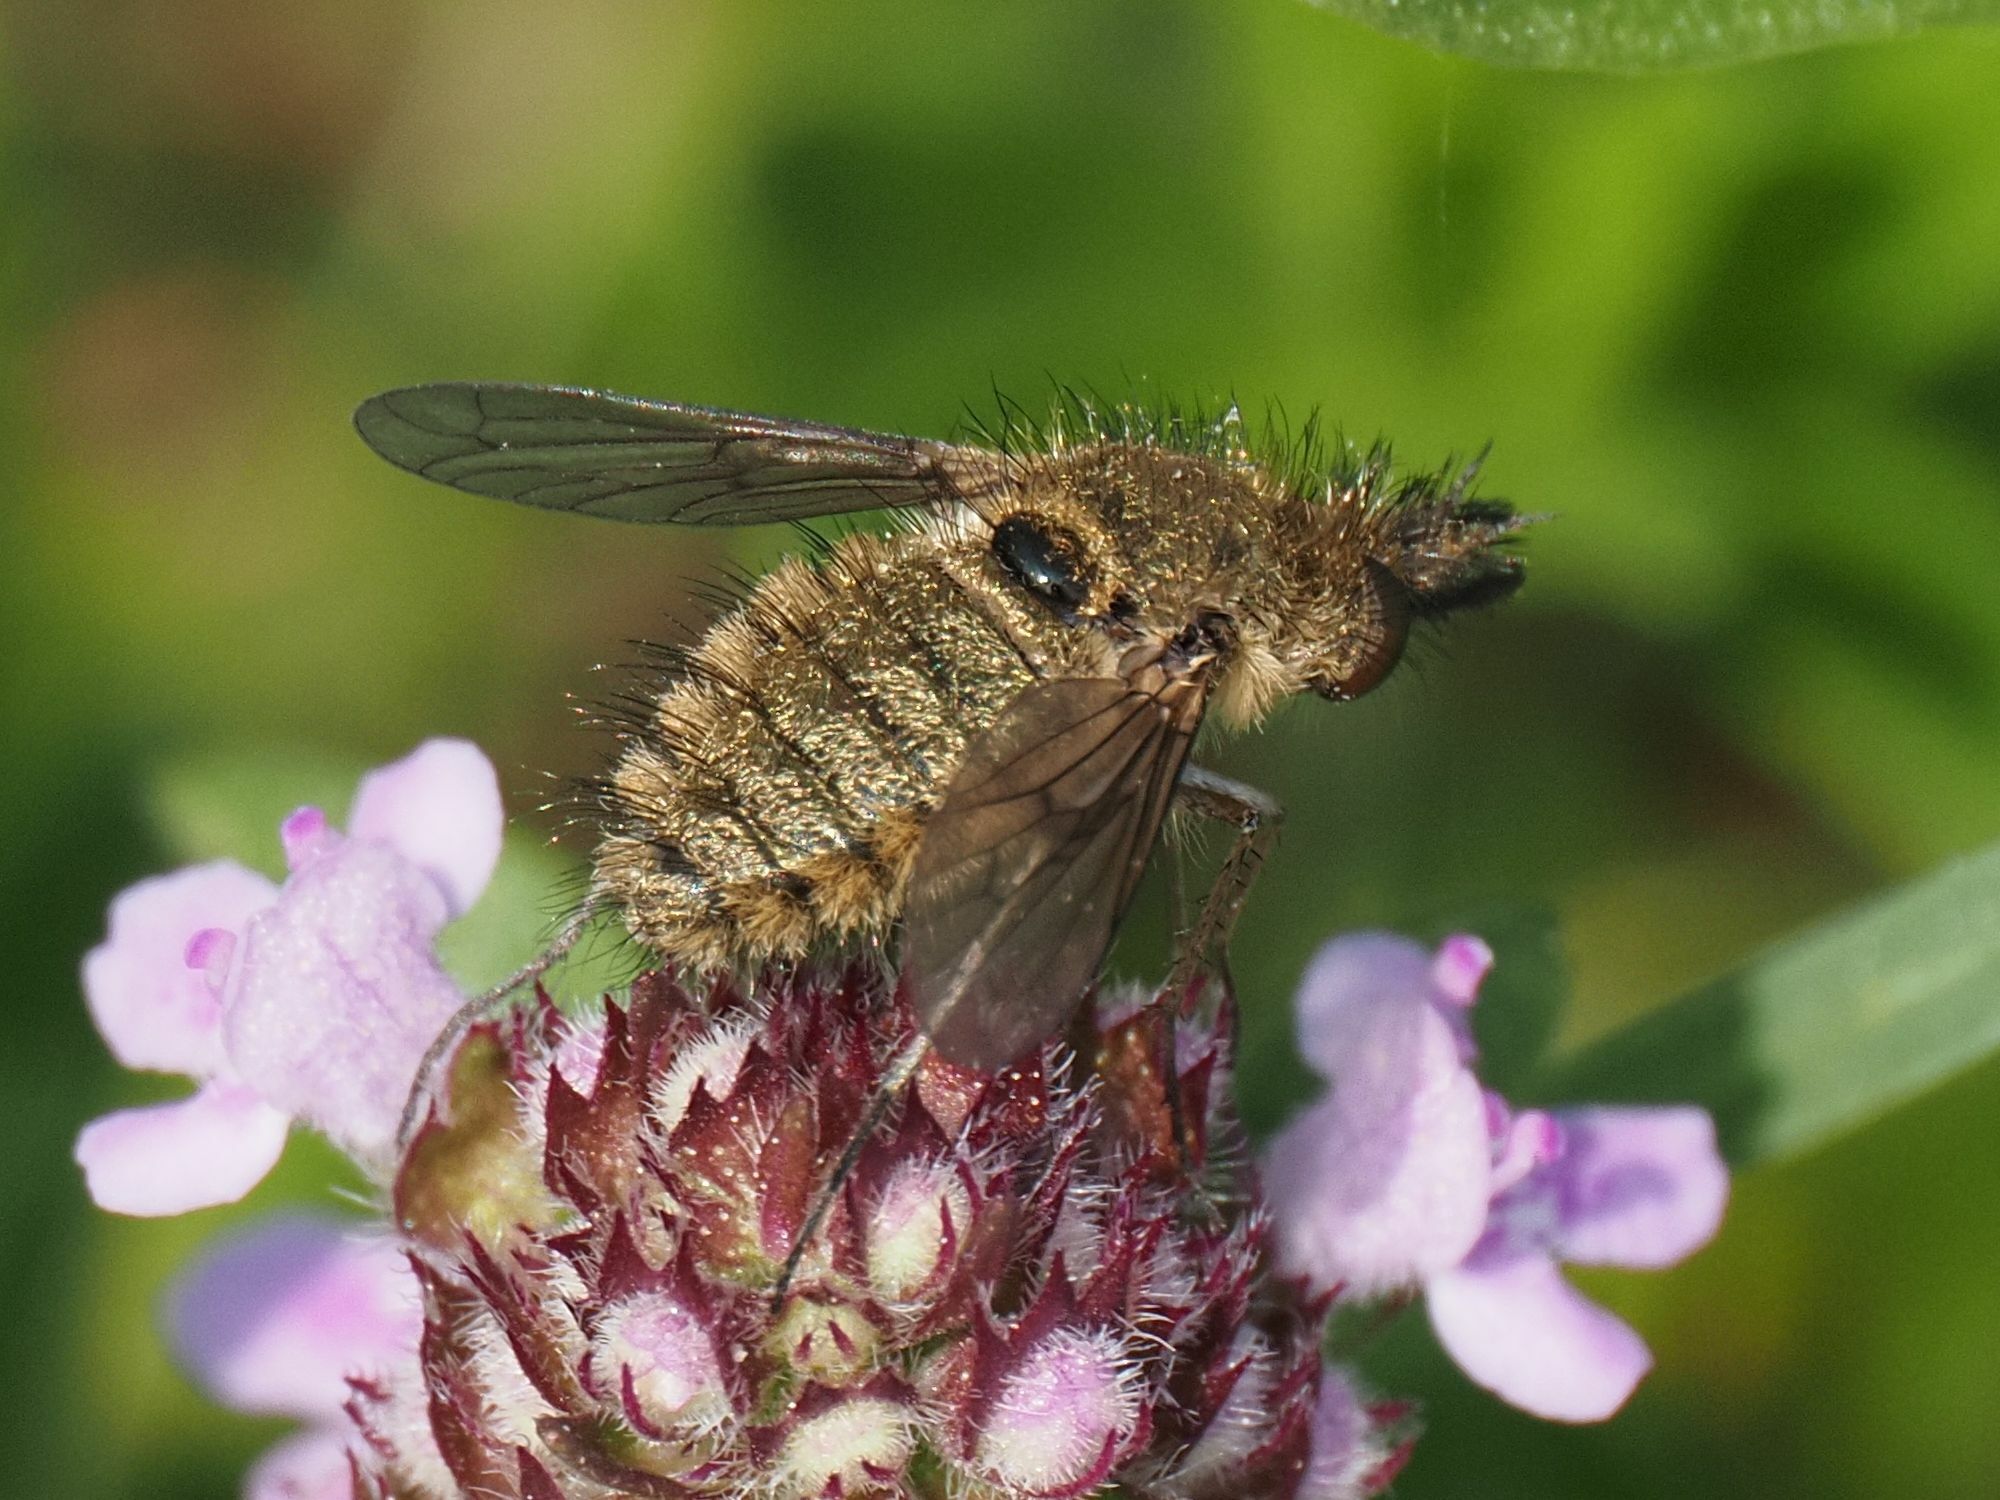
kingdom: Animalia
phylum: Arthropoda
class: Insecta
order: Diptera
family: Bombyliidae
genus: Conophorus
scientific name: Conophorus virescens
